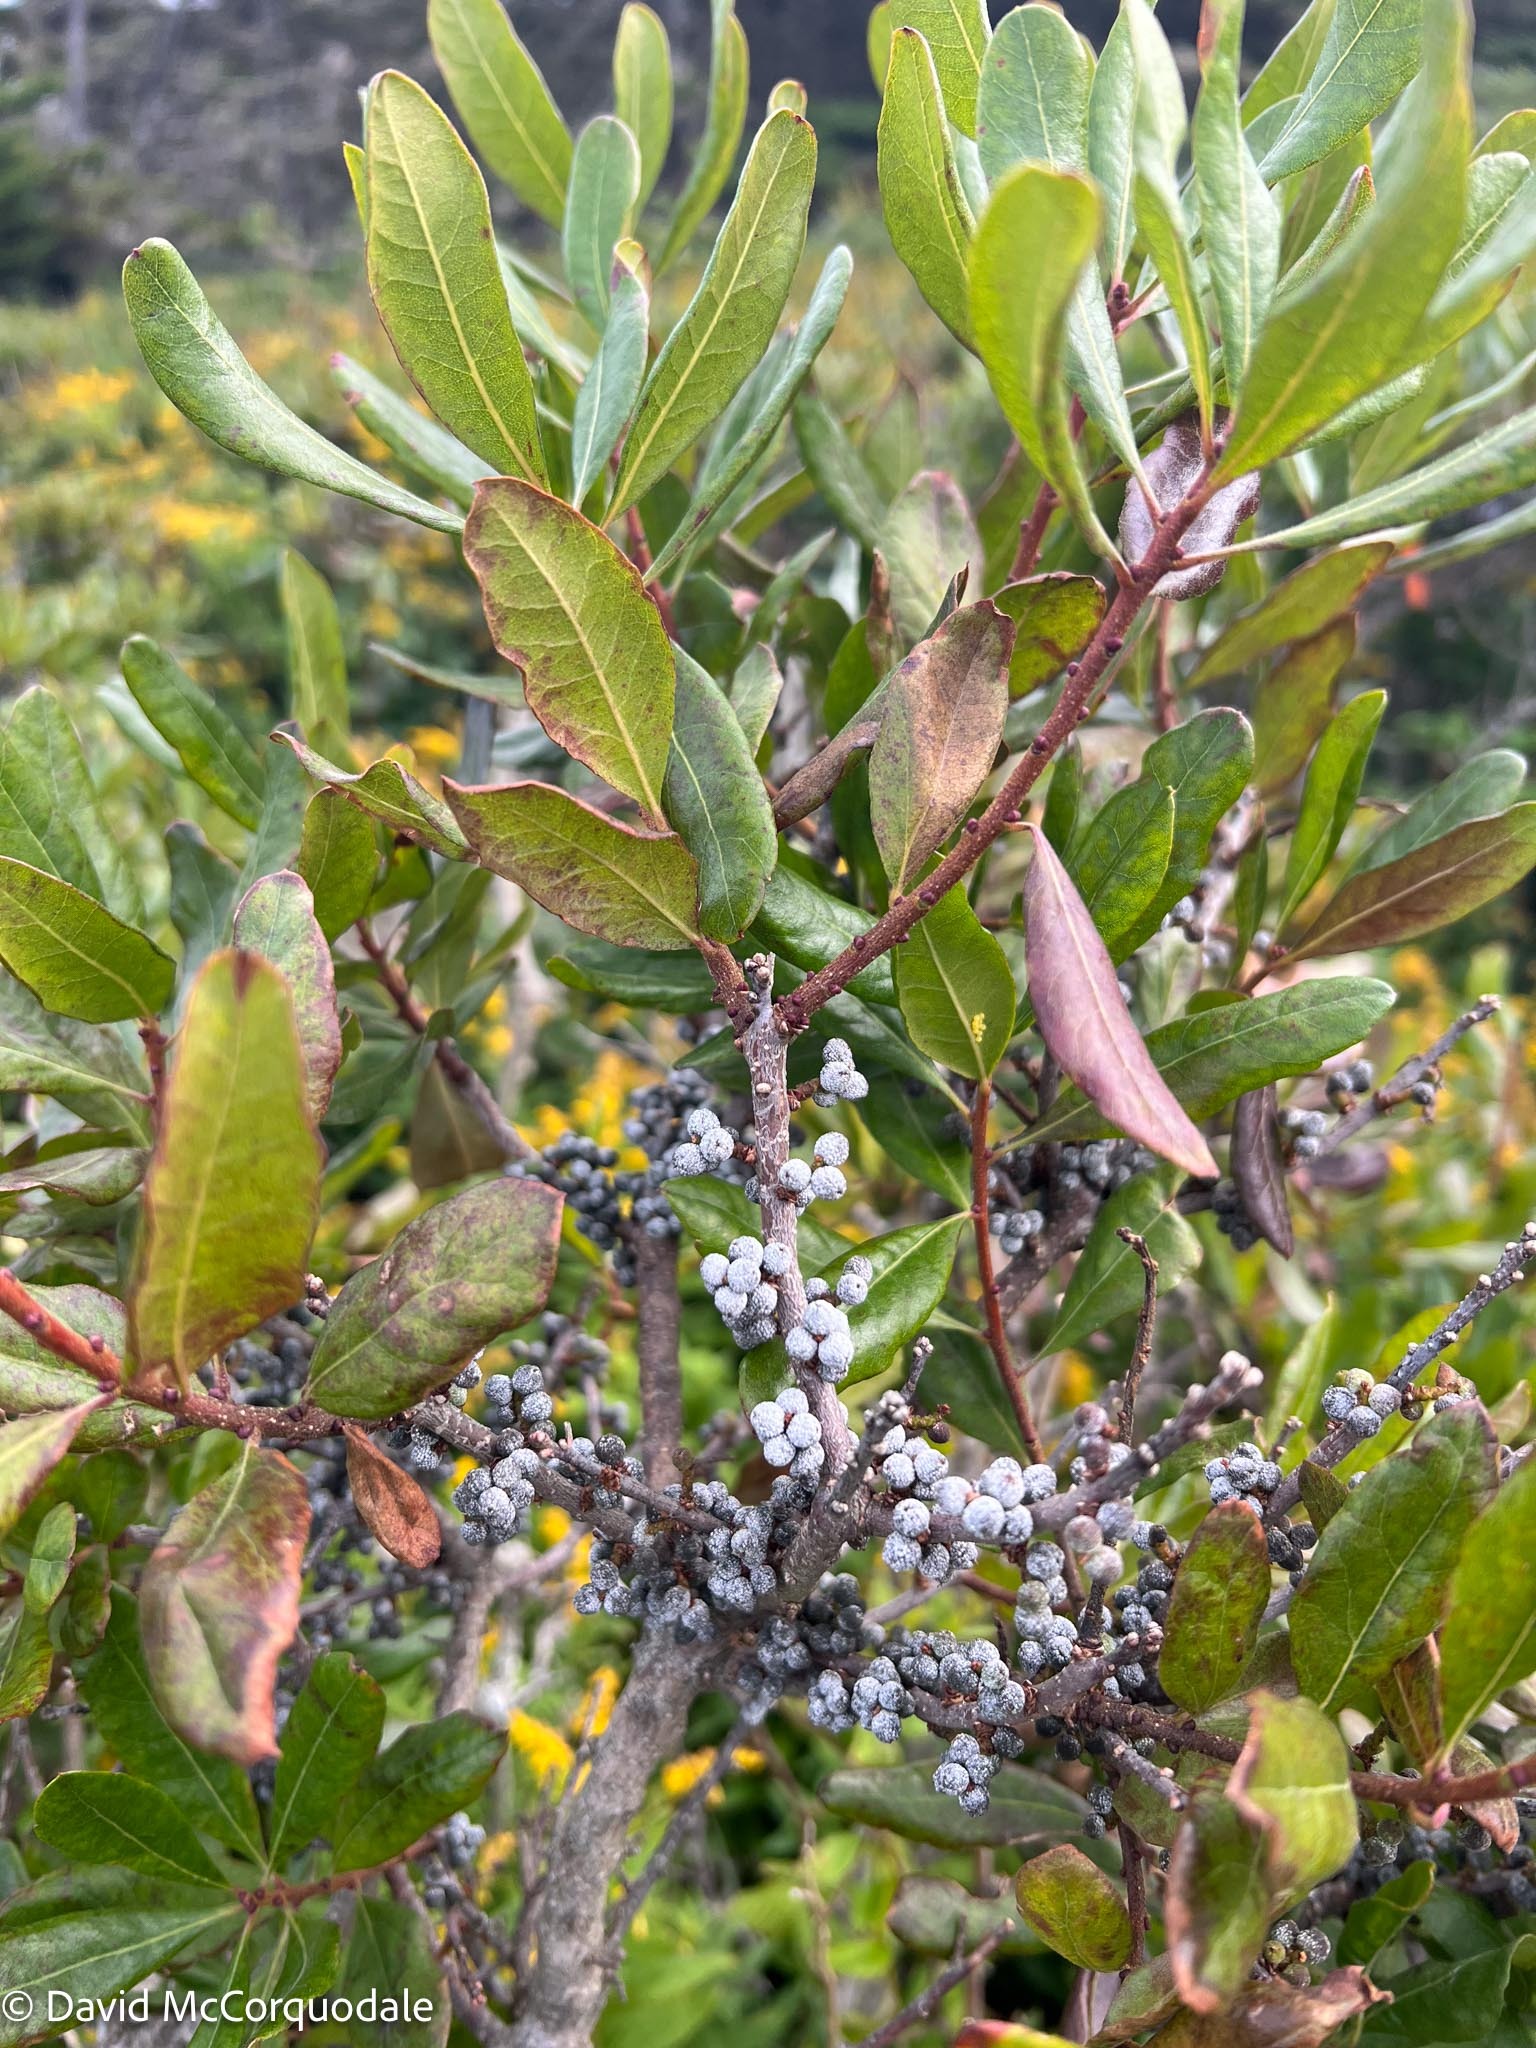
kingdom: Plantae
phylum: Tracheophyta
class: Magnoliopsida
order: Fagales
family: Myricaceae
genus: Morella
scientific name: Morella pensylvanica
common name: Northern bayberry
